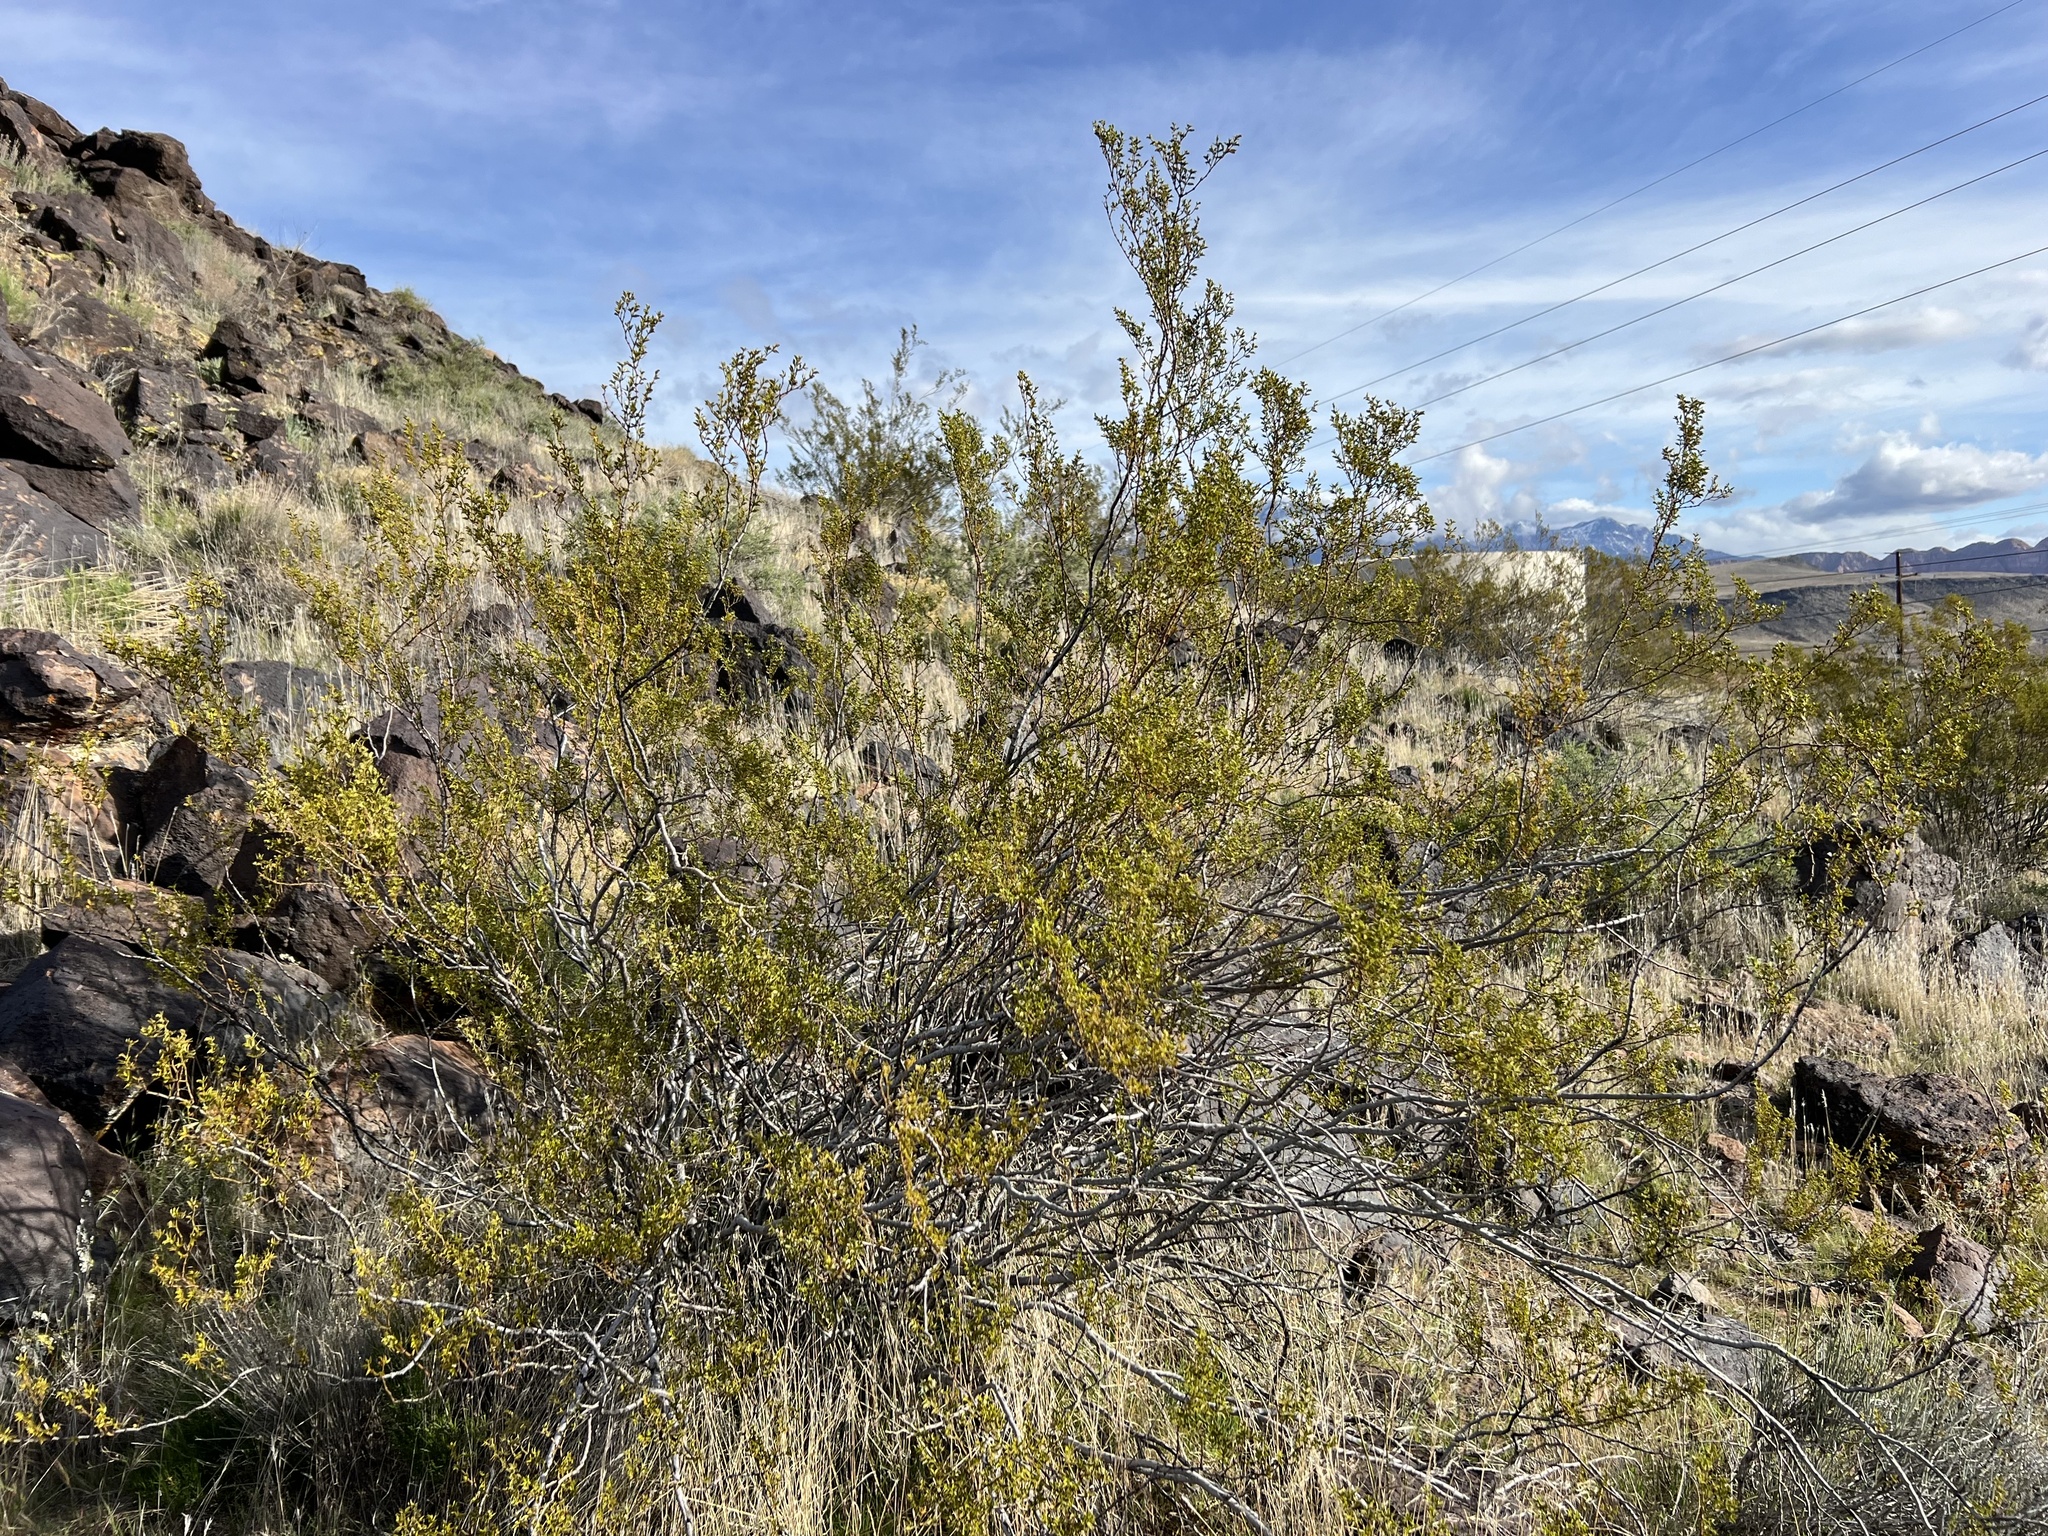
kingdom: Plantae
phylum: Tracheophyta
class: Magnoliopsida
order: Zygophyllales
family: Zygophyllaceae
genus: Larrea
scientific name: Larrea tridentata
